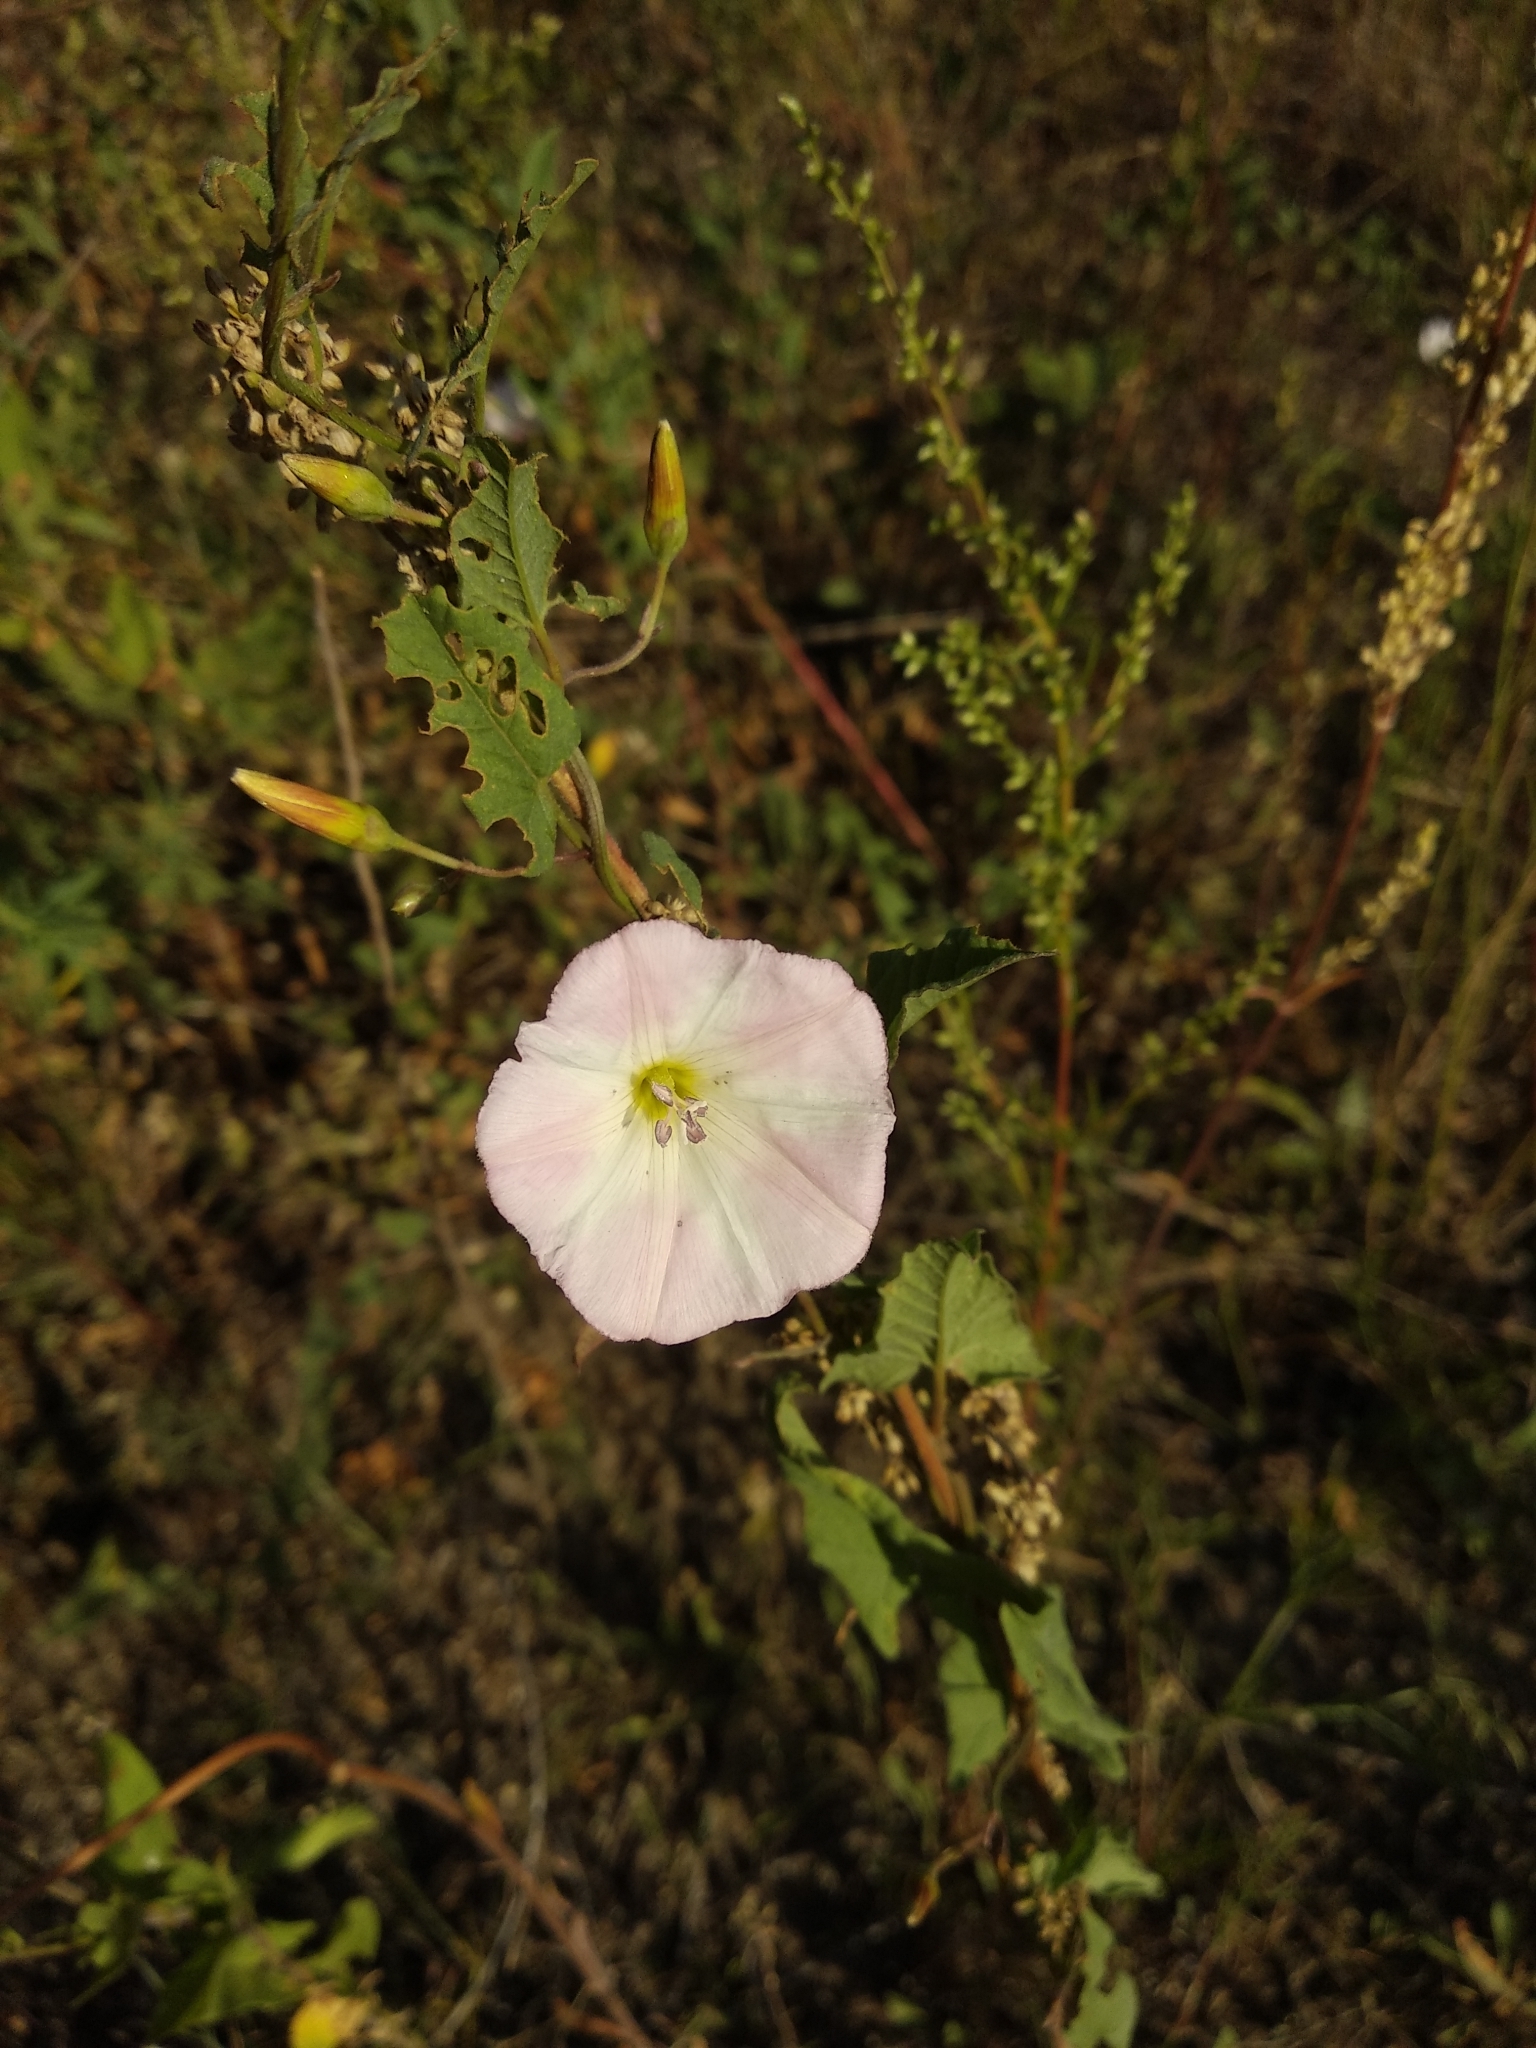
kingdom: Plantae
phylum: Tracheophyta
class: Magnoliopsida
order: Solanales
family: Convolvulaceae
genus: Convolvulus
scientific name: Convolvulus arvensis
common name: Field bindweed
